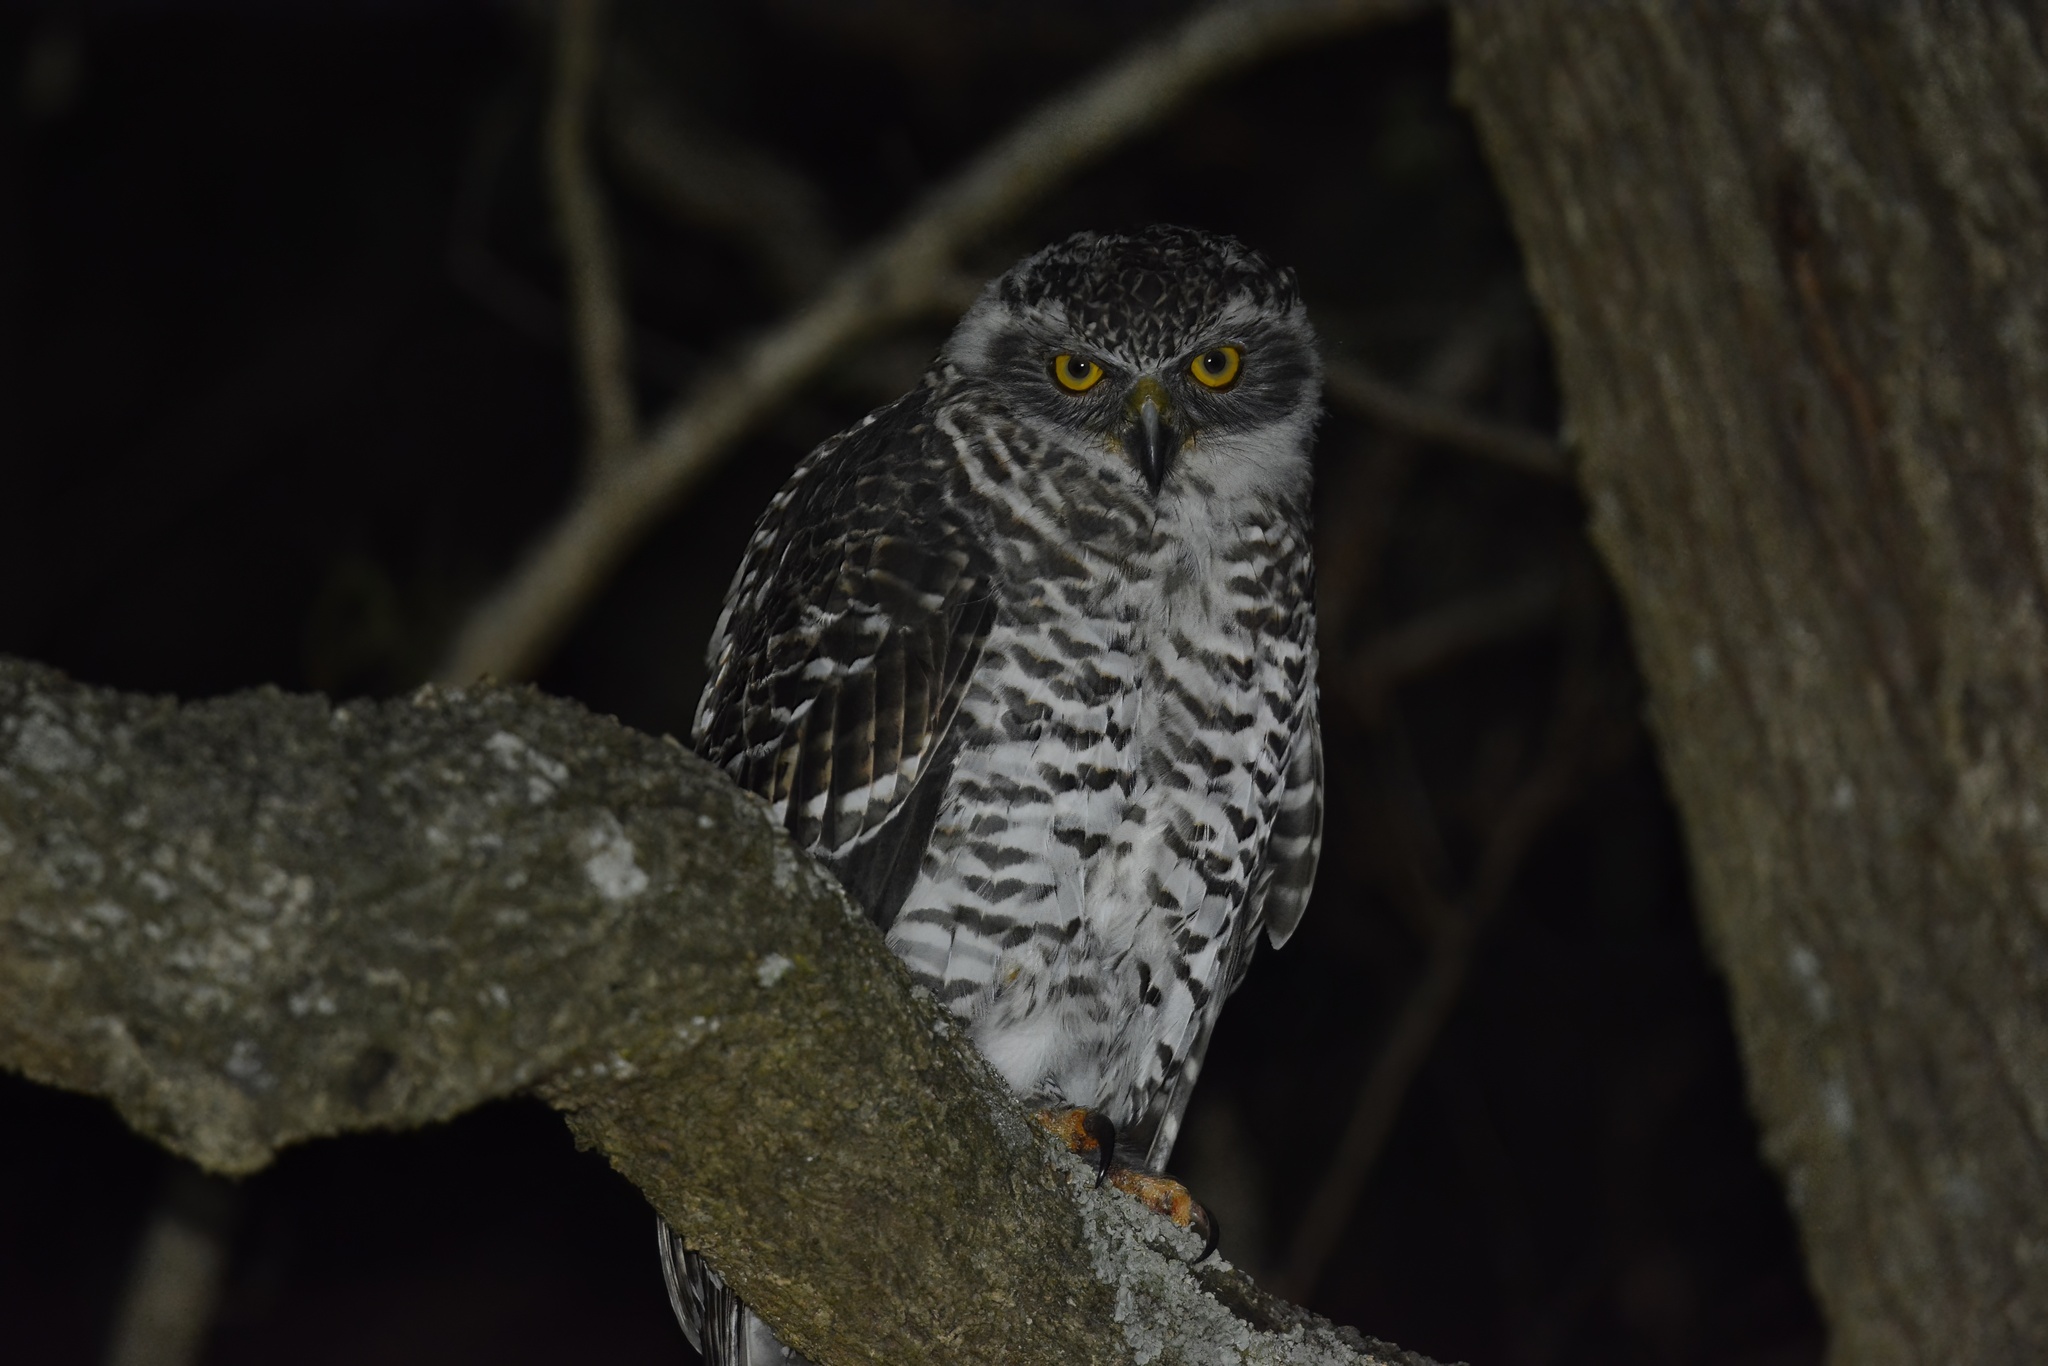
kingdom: Animalia
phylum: Chordata
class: Aves
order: Strigiformes
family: Strigidae
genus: Ninox
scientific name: Ninox strenua
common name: Powerful owl
